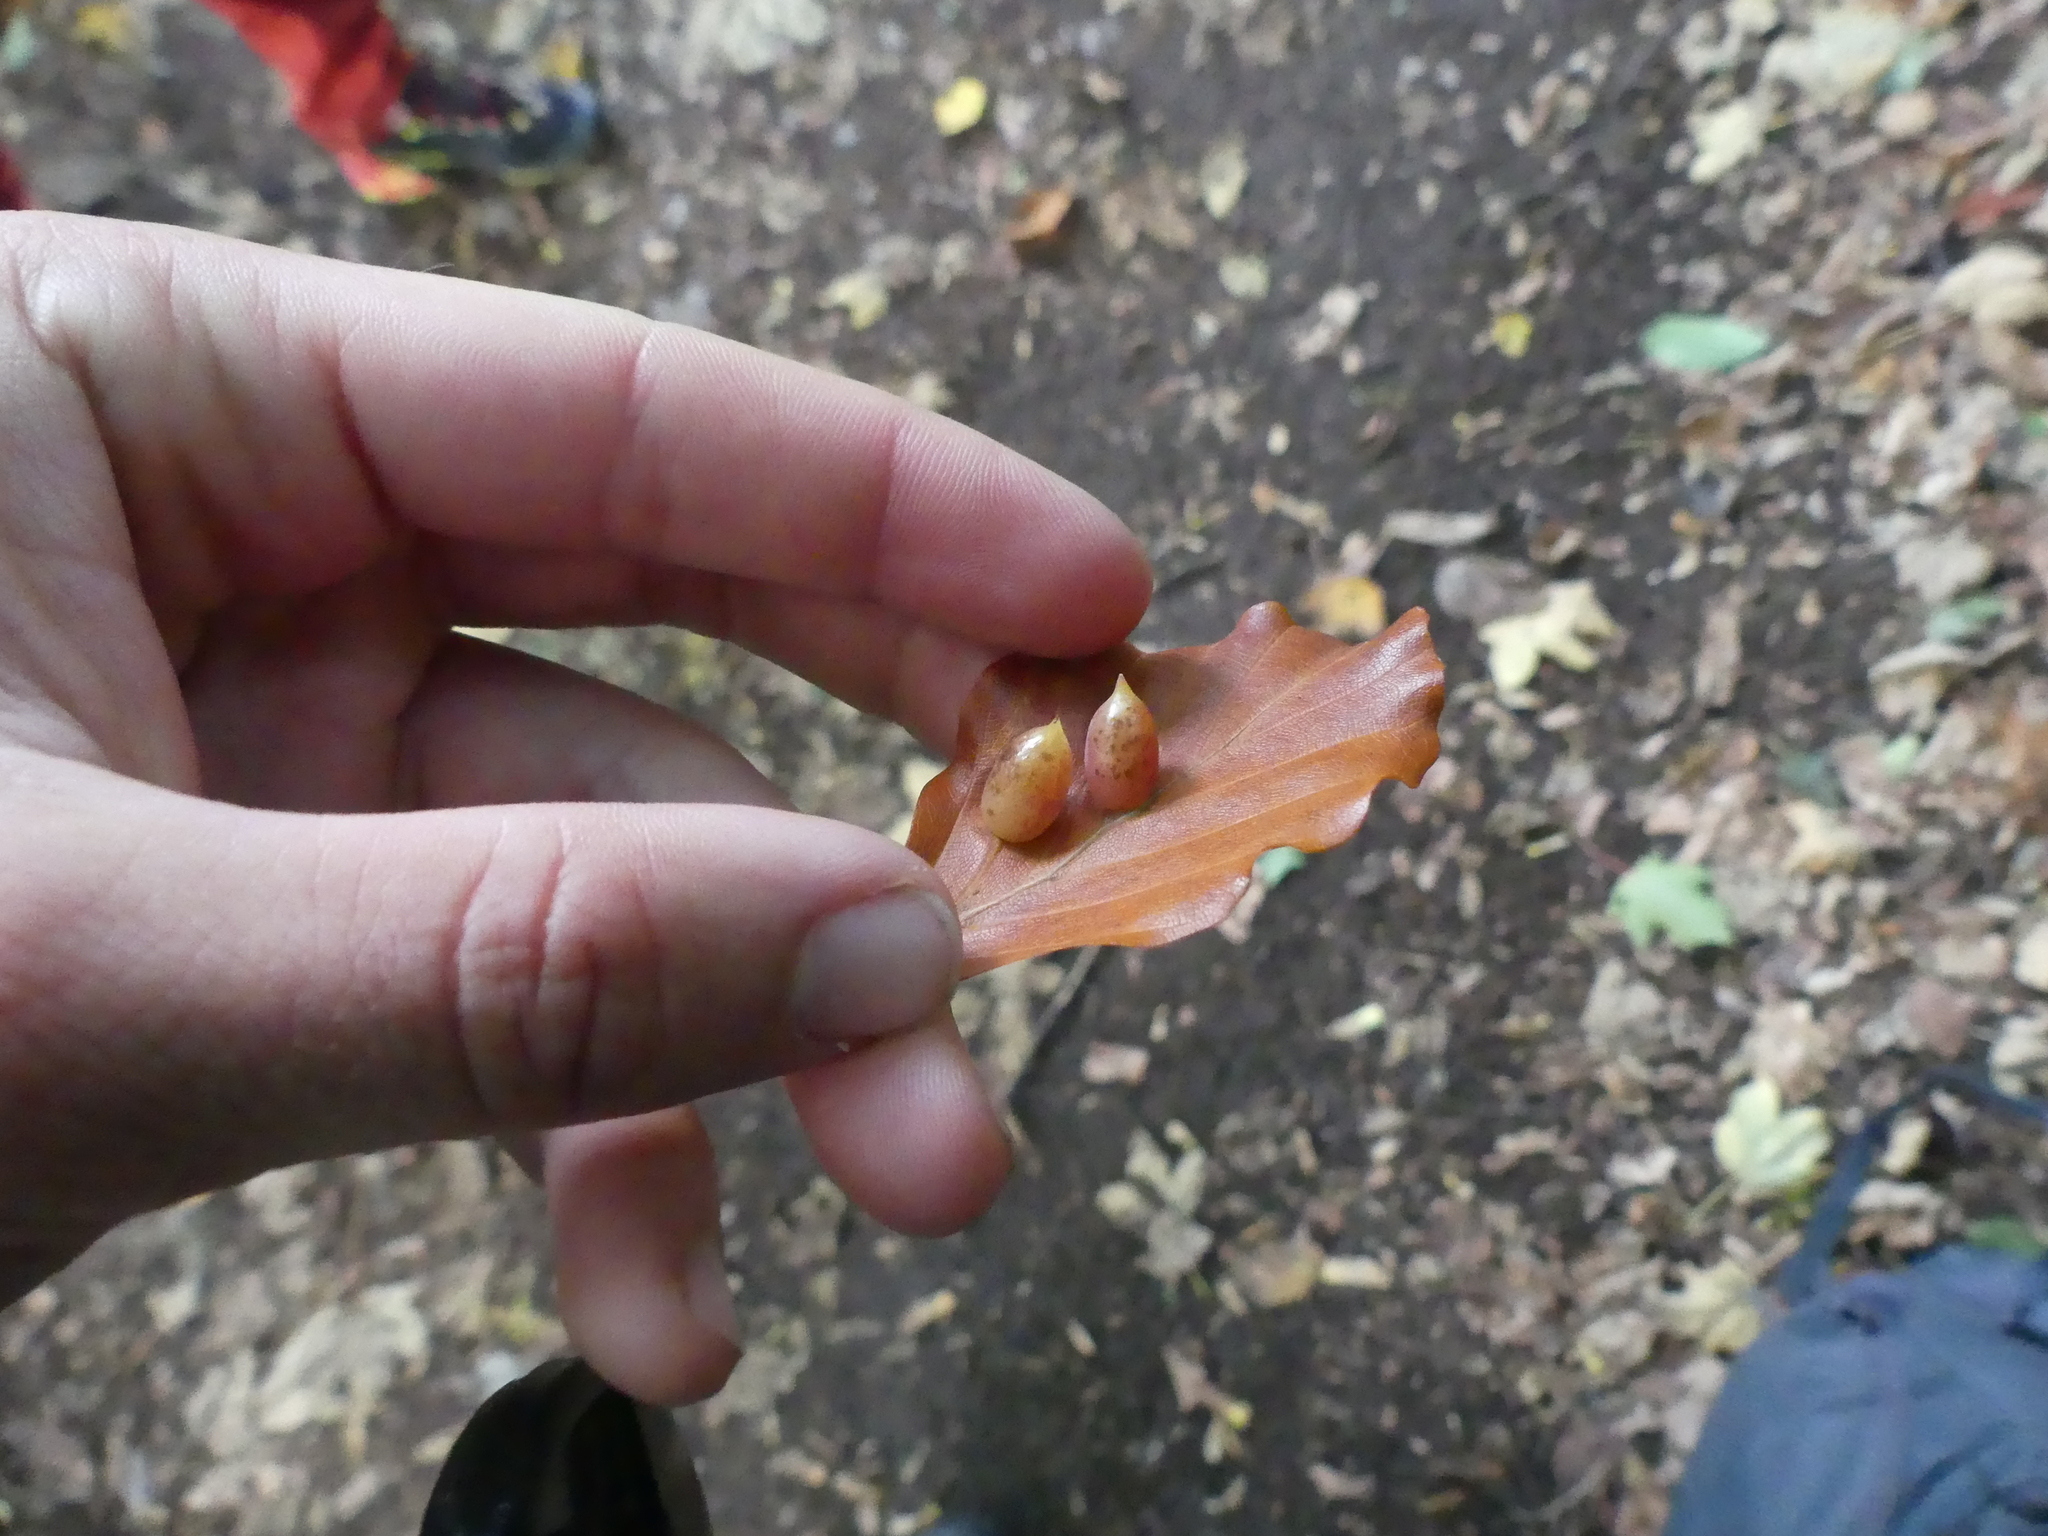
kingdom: Animalia
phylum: Arthropoda
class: Insecta
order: Diptera
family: Cecidomyiidae
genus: Mikiola
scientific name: Mikiola fagi
